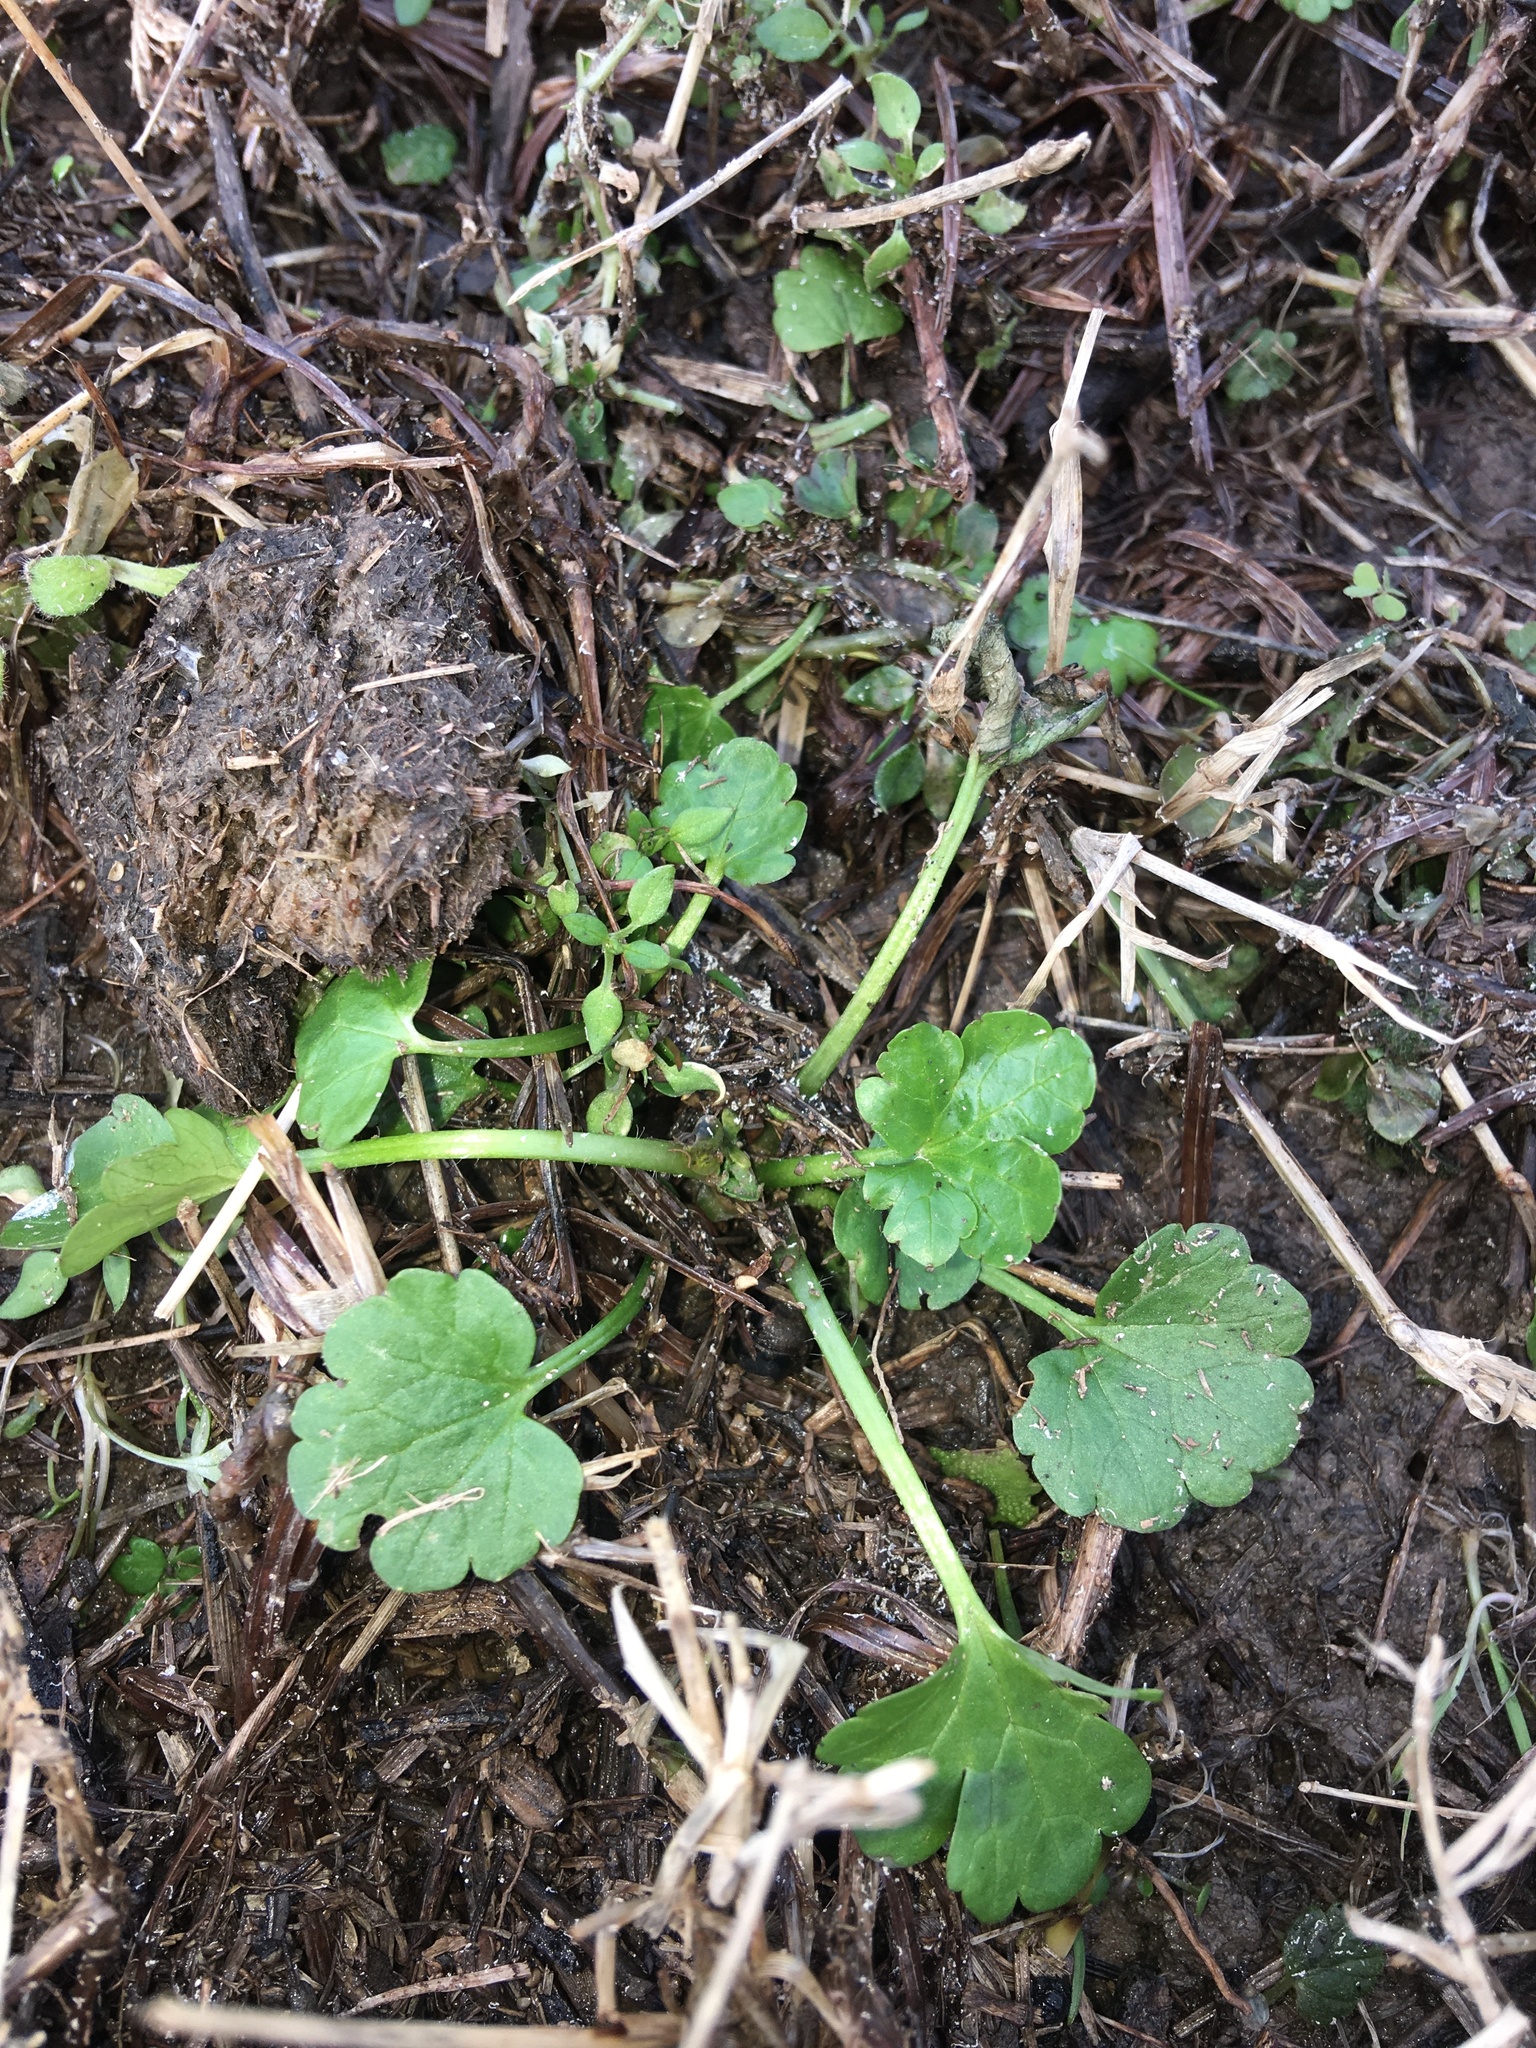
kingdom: Plantae
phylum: Tracheophyta
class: Magnoliopsida
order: Ranunculales
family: Ranunculaceae
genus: Ranunculus
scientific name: Ranunculus sardous
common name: Hairy buttercup
